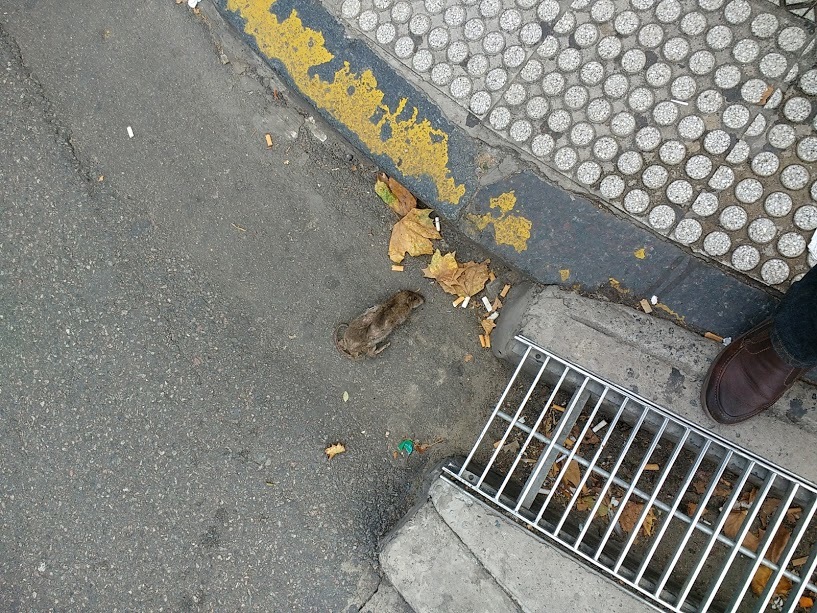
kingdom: Animalia
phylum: Chordata
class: Mammalia
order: Rodentia
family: Muridae
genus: Rattus
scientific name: Rattus norvegicus
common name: Brown rat
